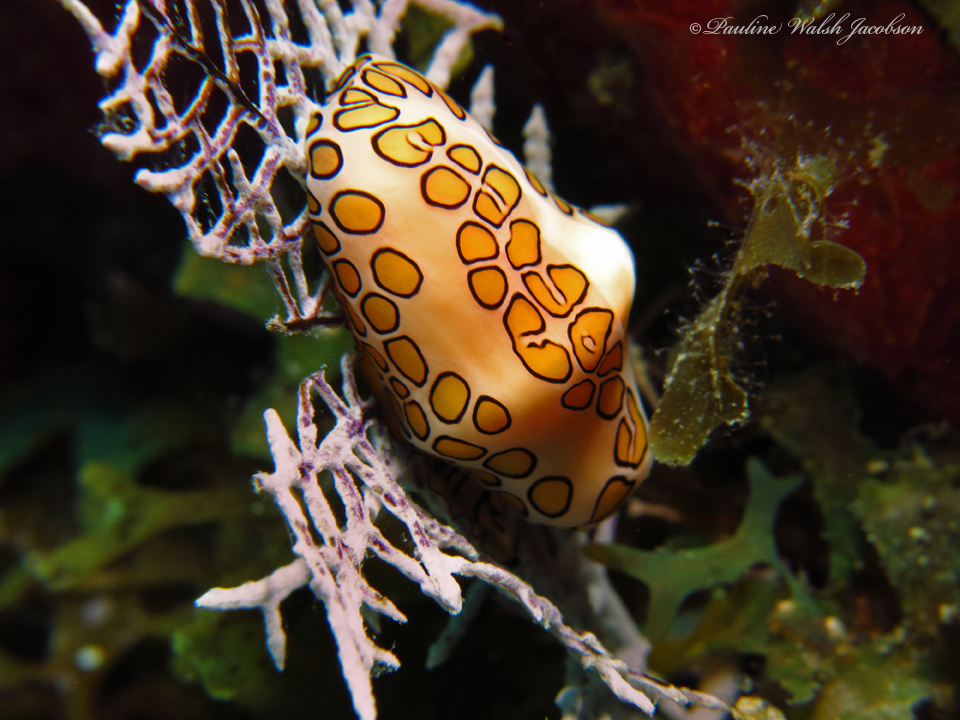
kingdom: Animalia
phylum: Mollusca
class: Gastropoda
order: Littorinimorpha
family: Ovulidae
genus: Cyphoma
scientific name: Cyphoma gibbosum
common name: Flamingo tongue
